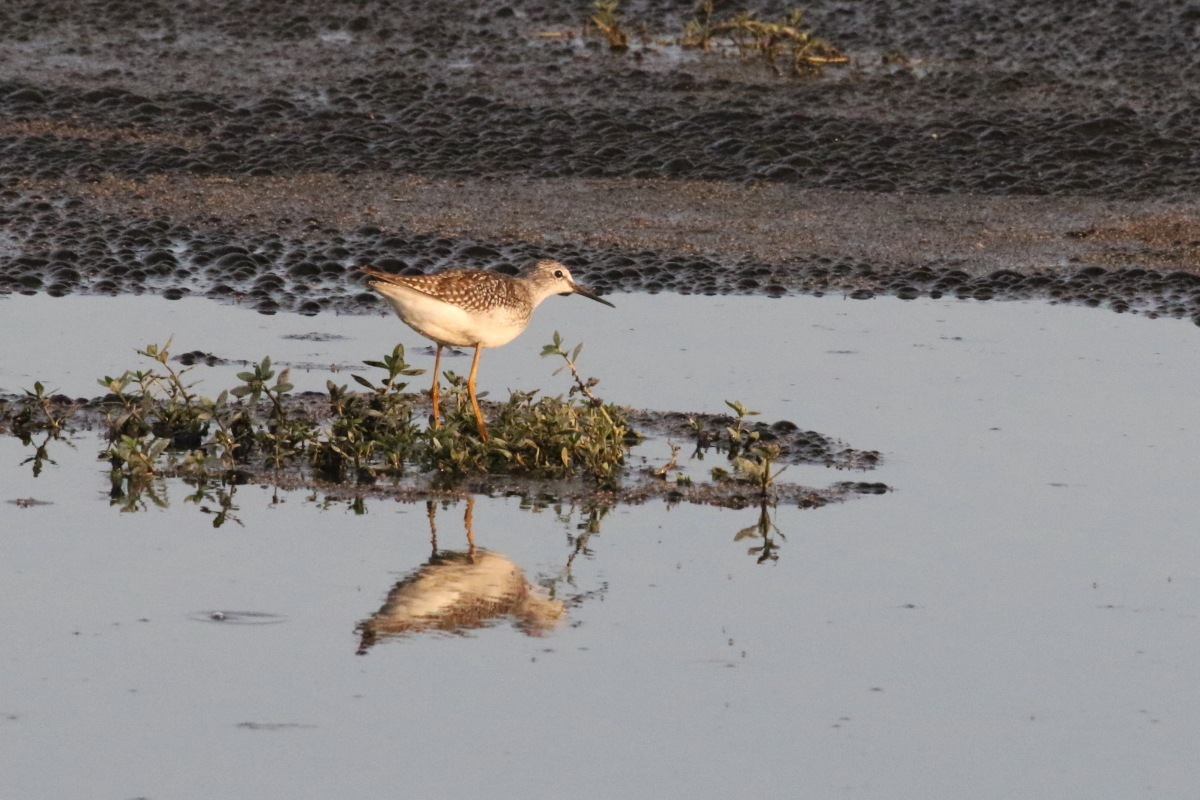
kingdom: Animalia
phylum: Chordata
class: Aves
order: Charadriiformes
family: Scolopacidae
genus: Tringa
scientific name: Tringa flavipes
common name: Lesser yellowlegs
